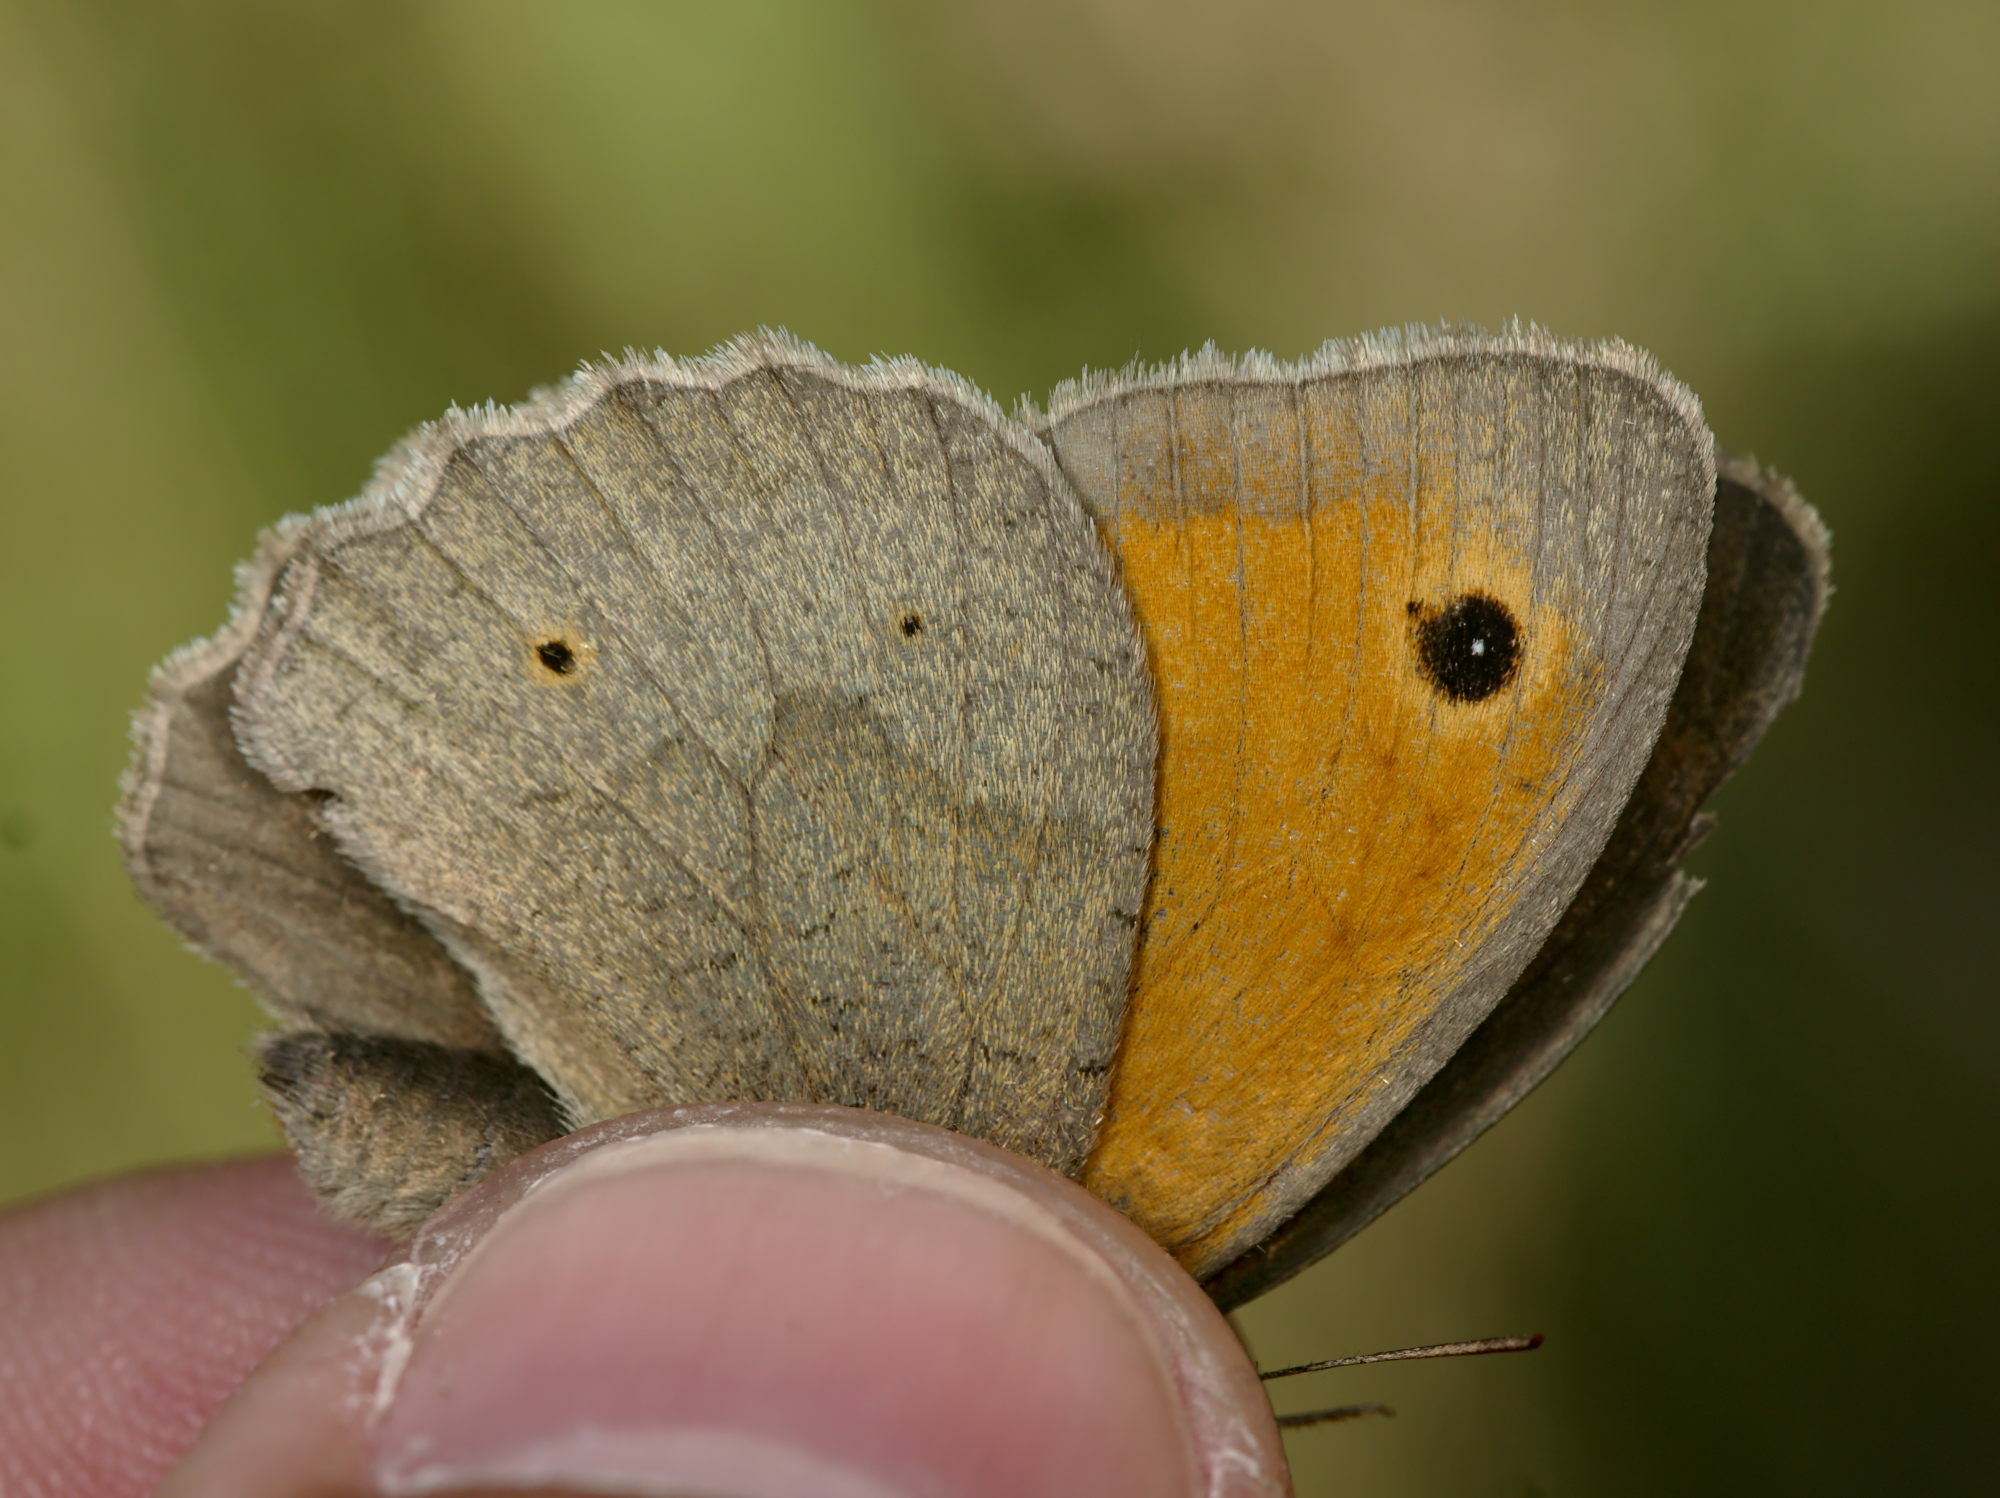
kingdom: Animalia
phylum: Arthropoda
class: Insecta
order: Lepidoptera
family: Nymphalidae
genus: Maniola
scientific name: Maniola jurtina
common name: Meadow brown
